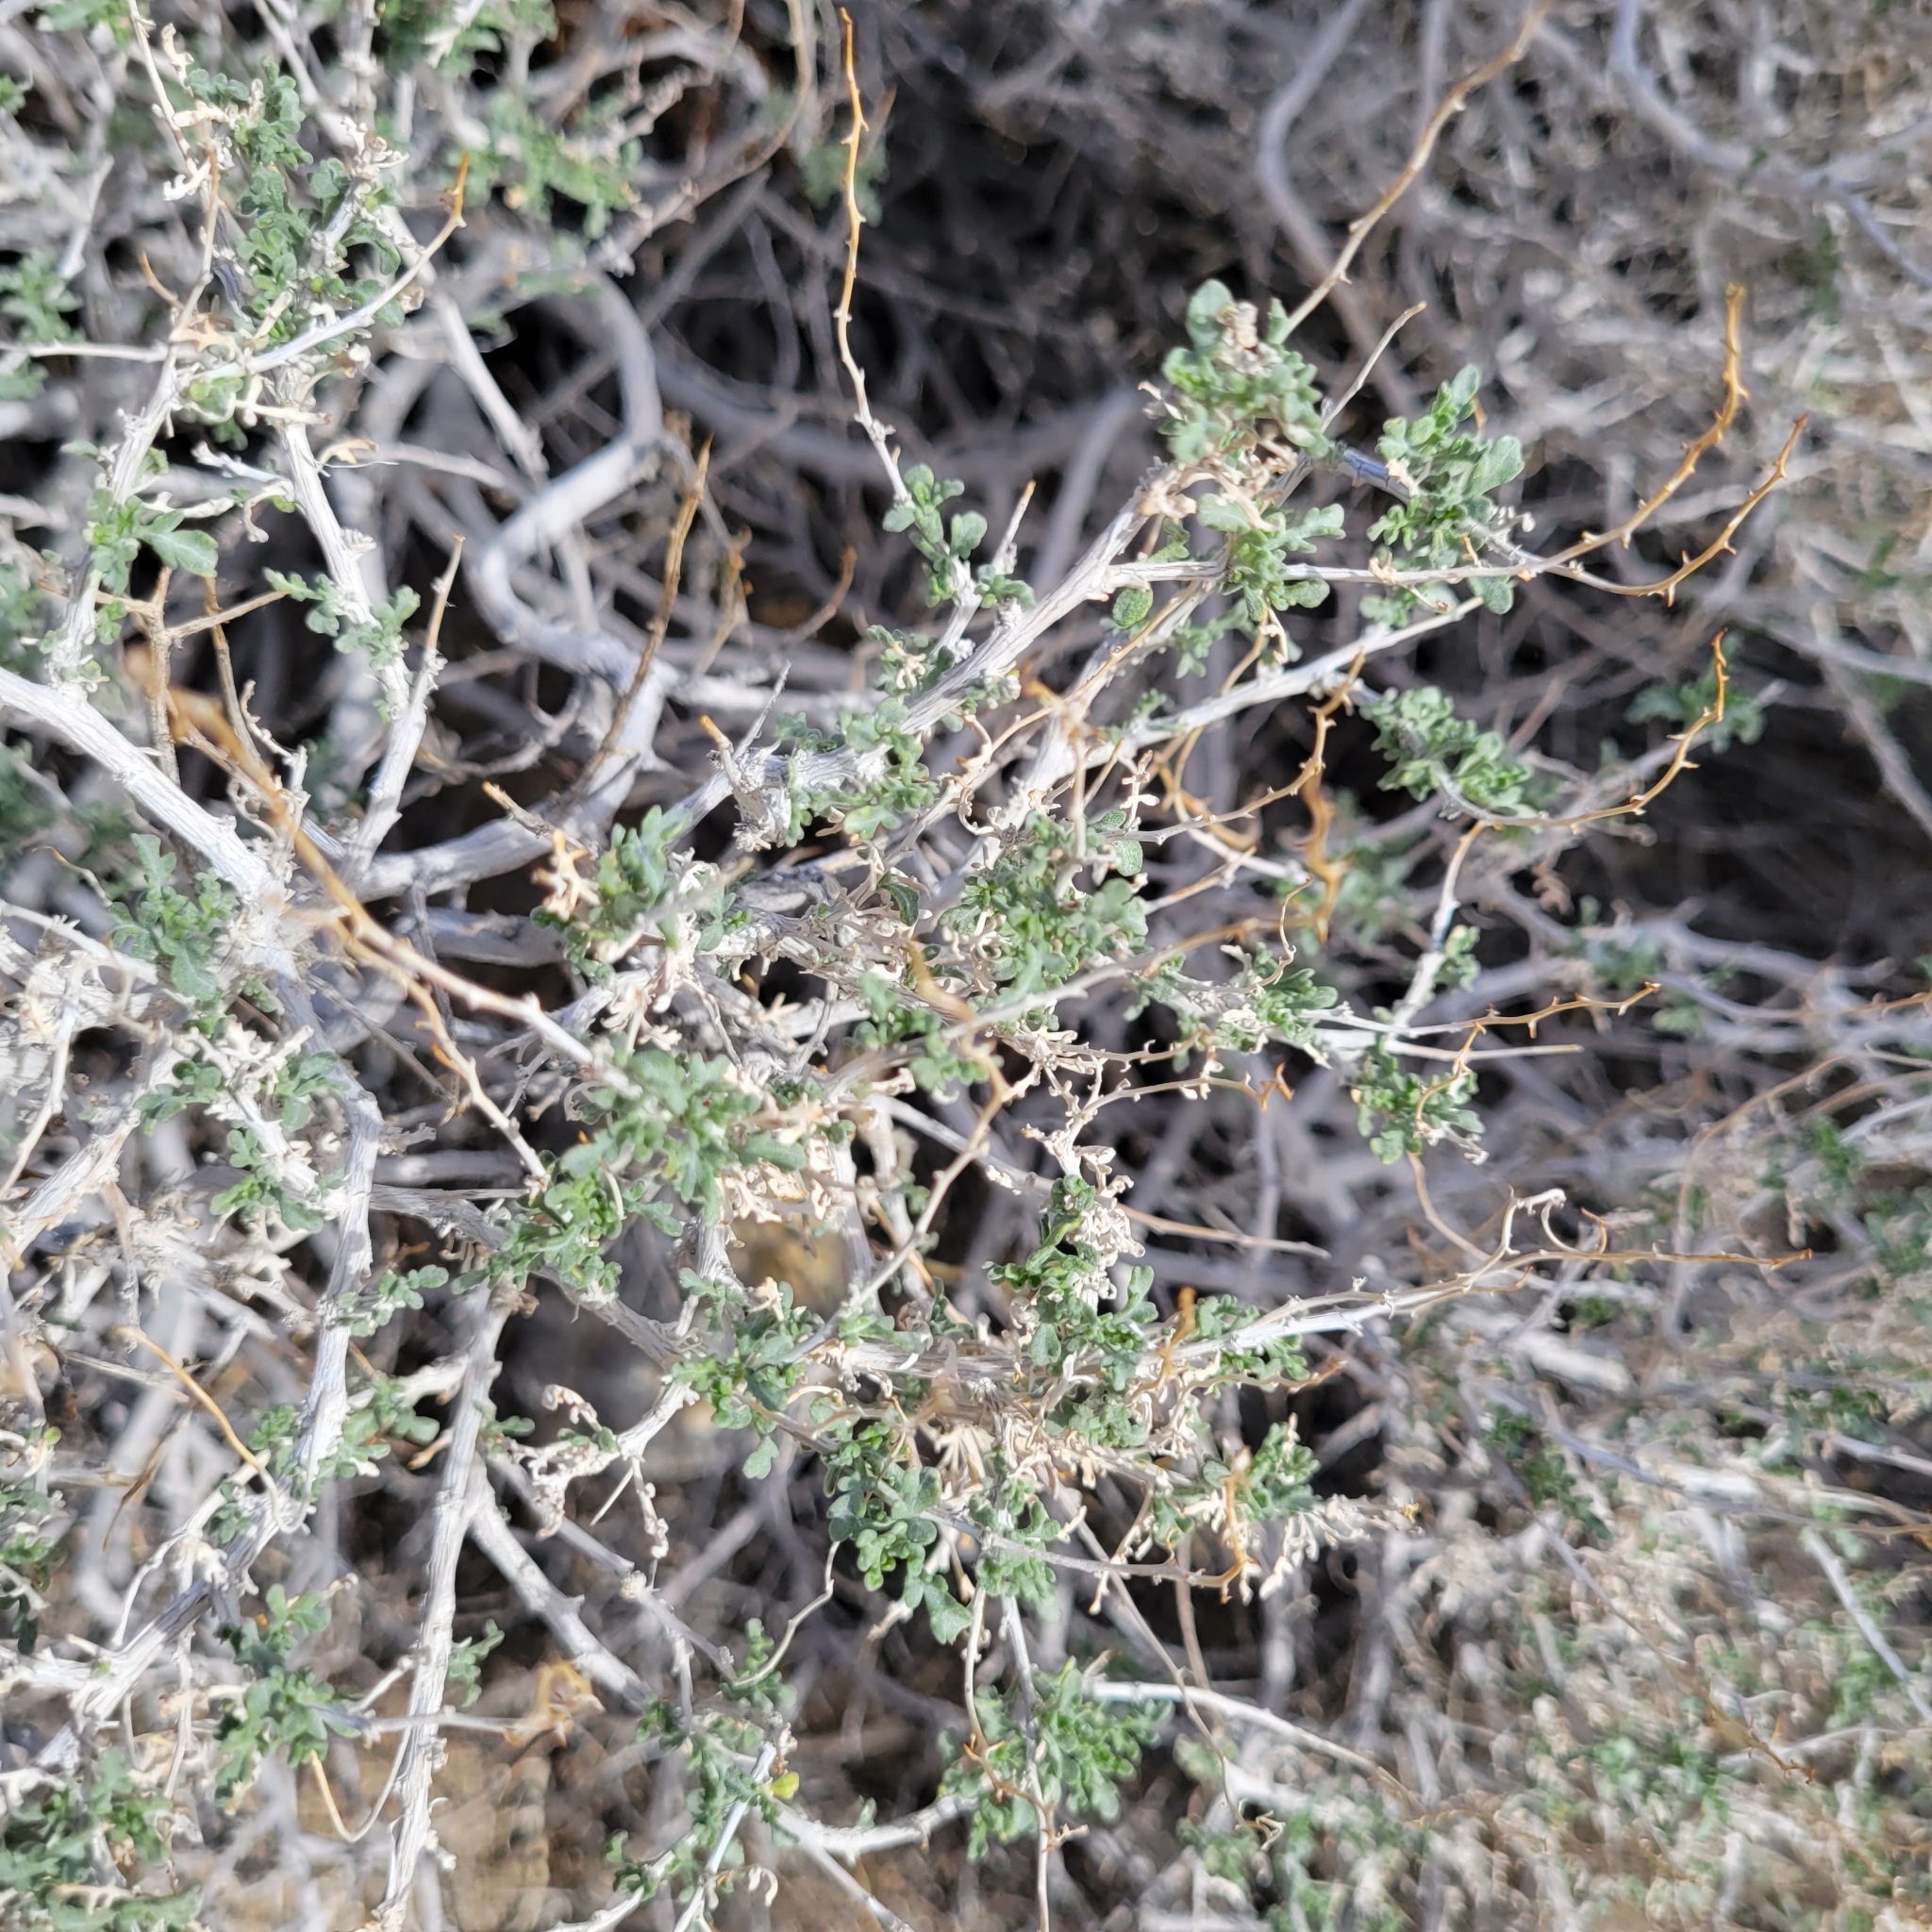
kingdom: Plantae
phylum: Tracheophyta
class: Magnoliopsida
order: Asterales
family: Asteraceae
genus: Ambrosia
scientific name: Ambrosia dumosa
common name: Bur-sage
